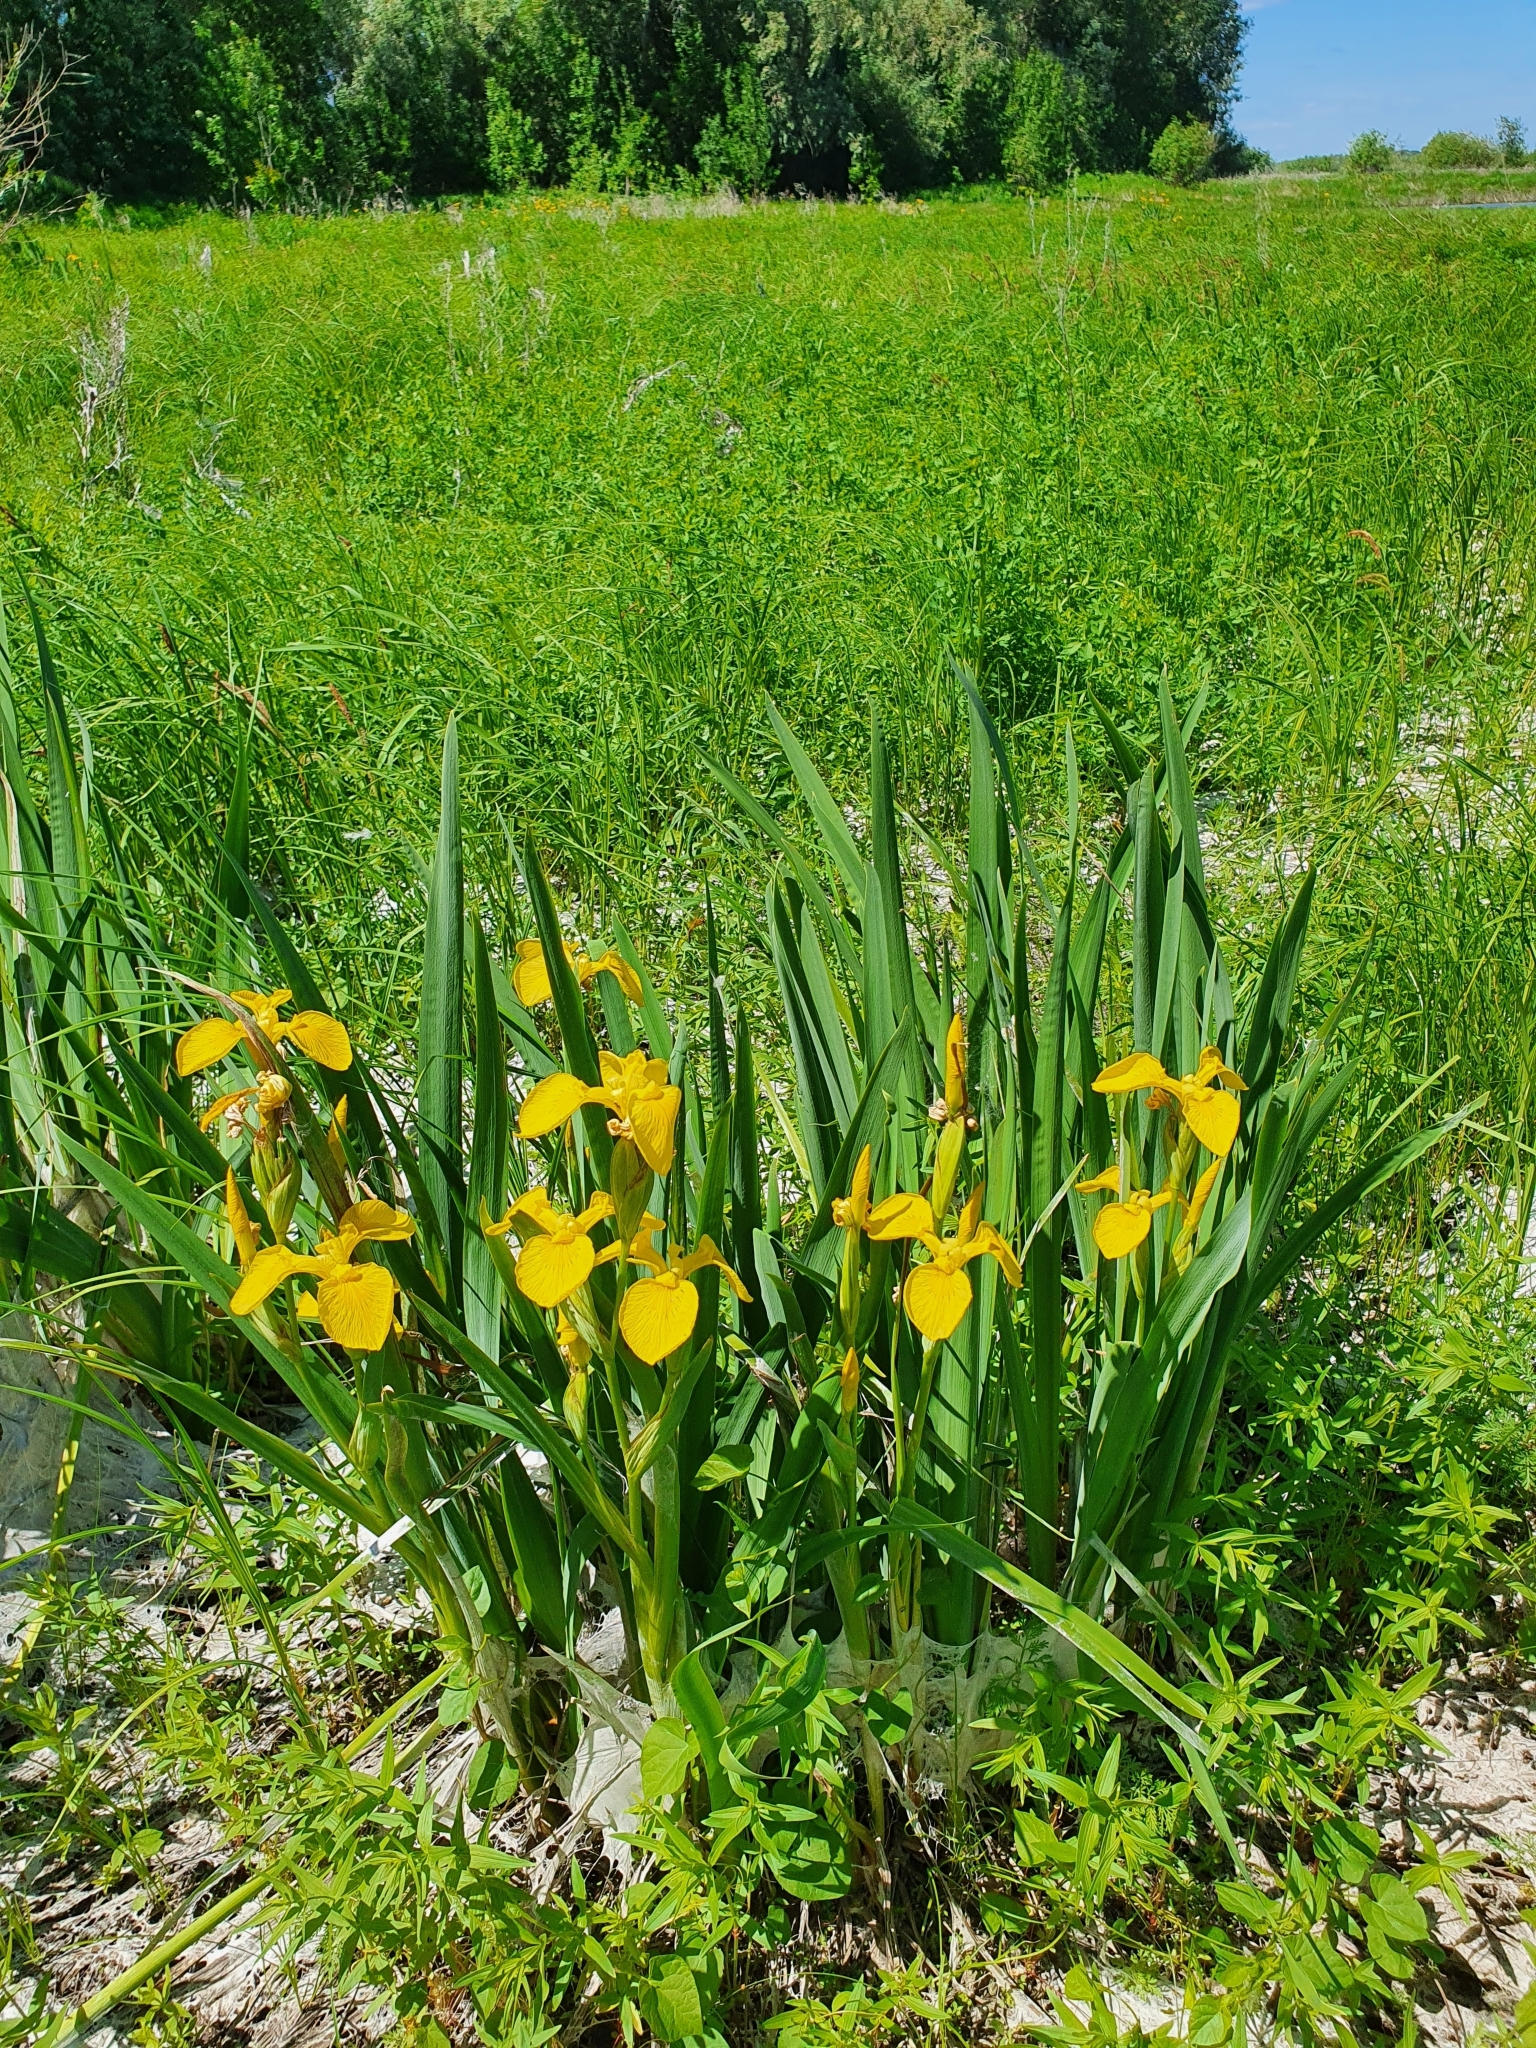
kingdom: Plantae
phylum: Tracheophyta
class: Liliopsida
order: Asparagales
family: Iridaceae
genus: Iris
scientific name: Iris pseudacorus
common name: Yellow flag
